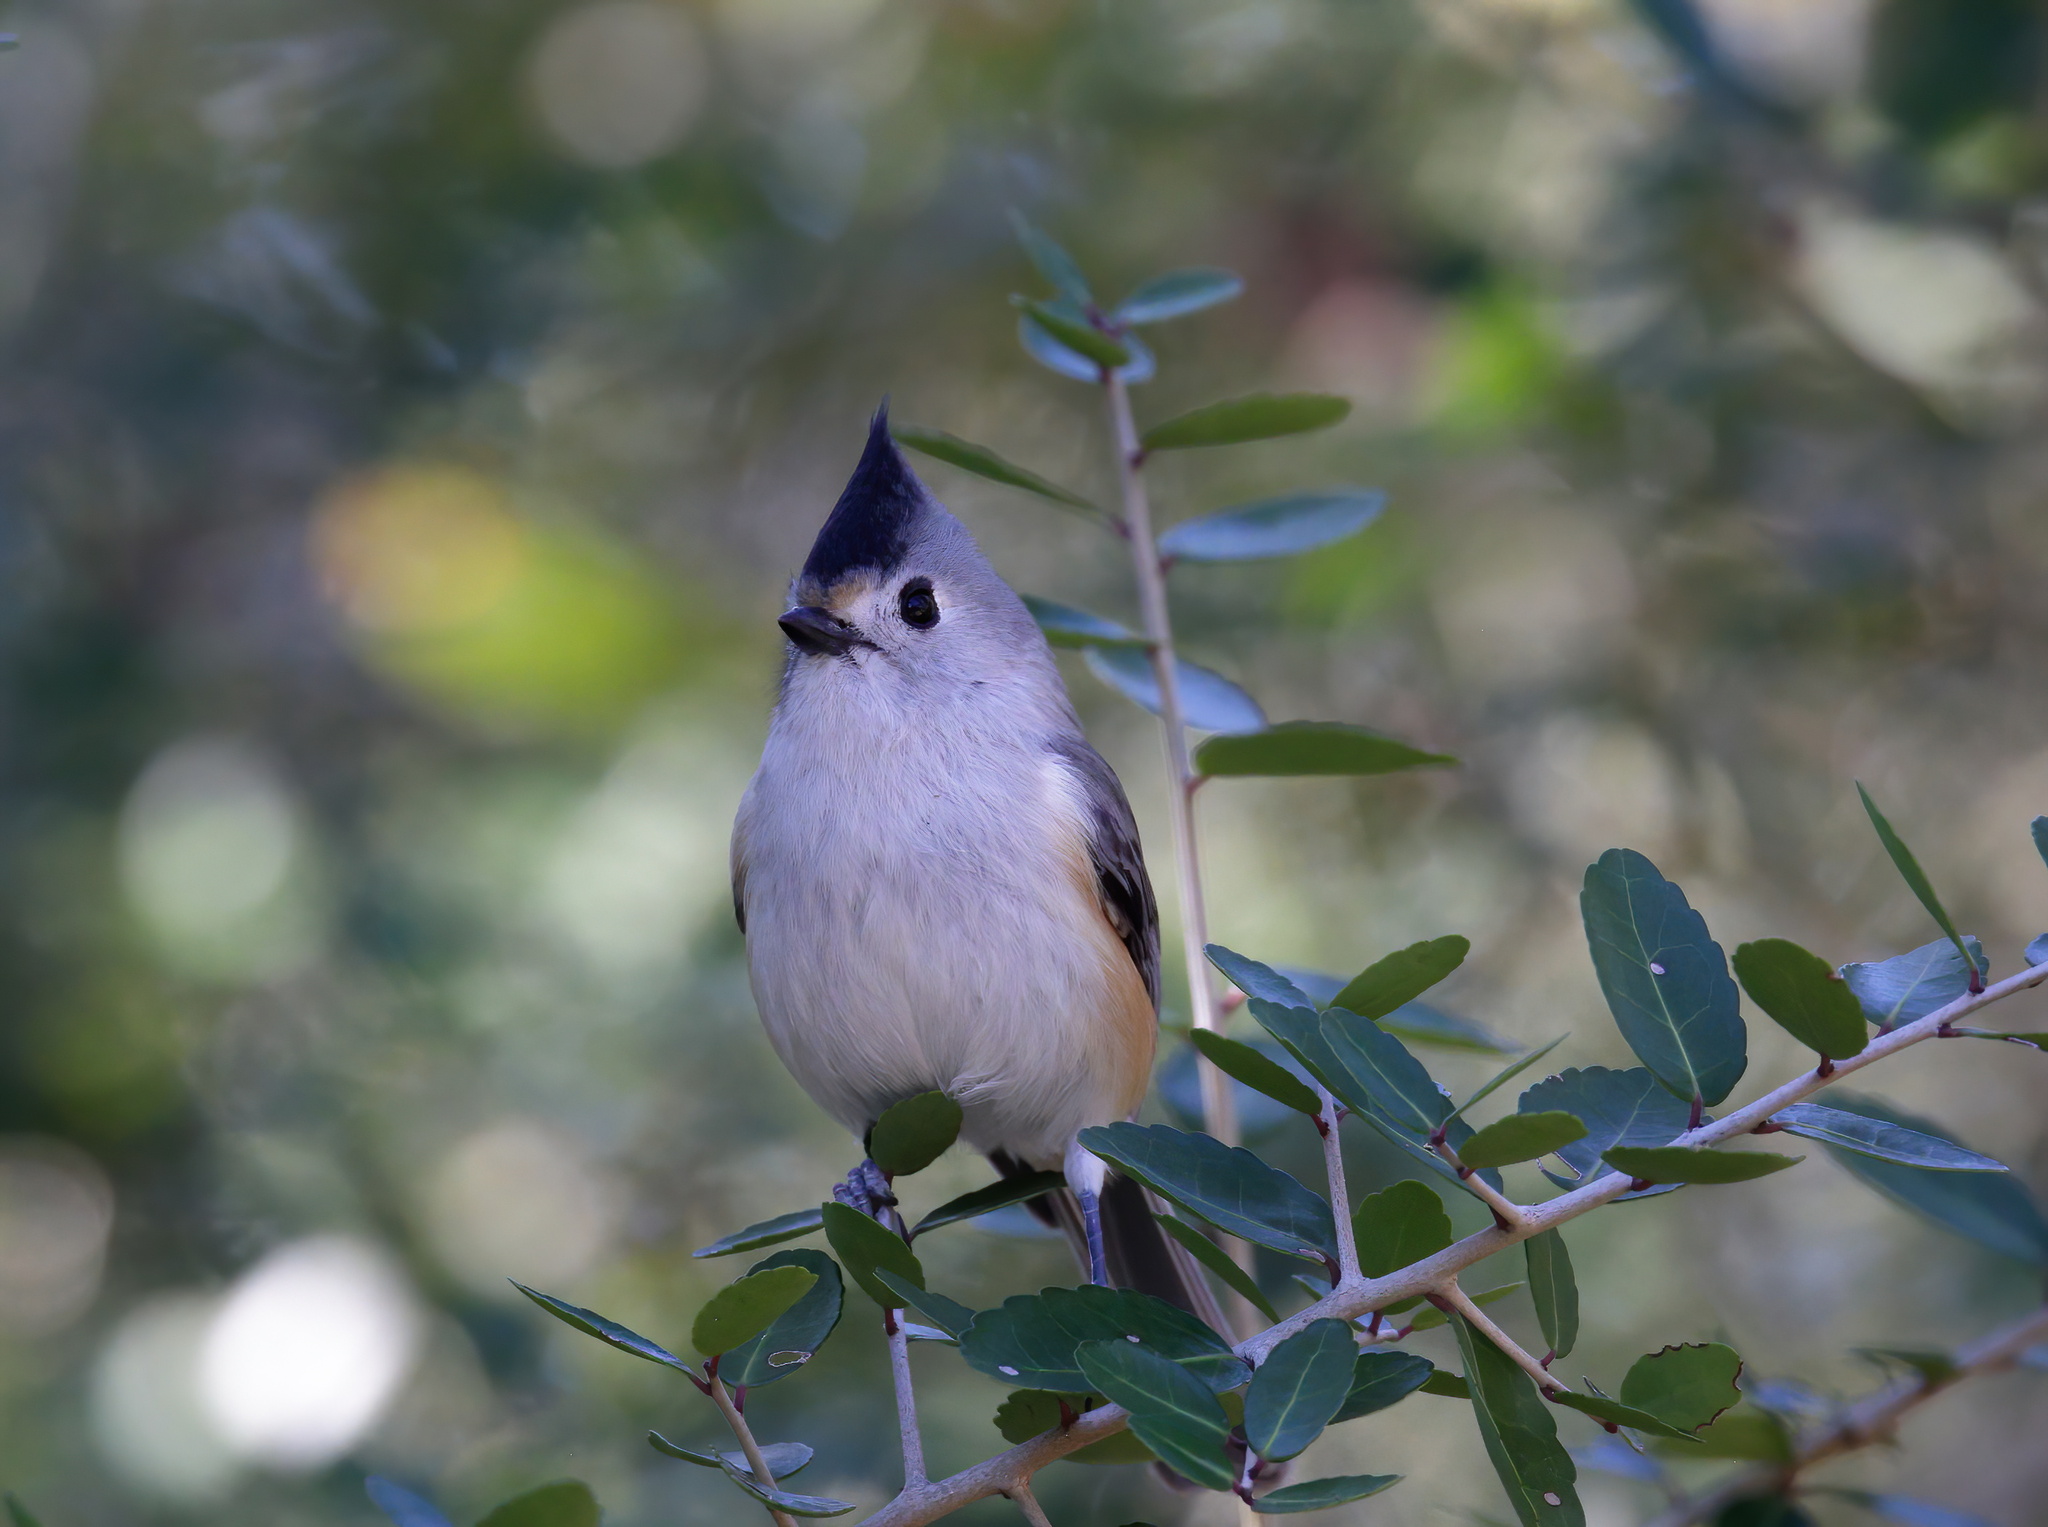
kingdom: Animalia
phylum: Chordata
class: Aves
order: Passeriformes
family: Paridae
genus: Baeolophus
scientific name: Baeolophus atricristatus
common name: Black-crested titmouse
